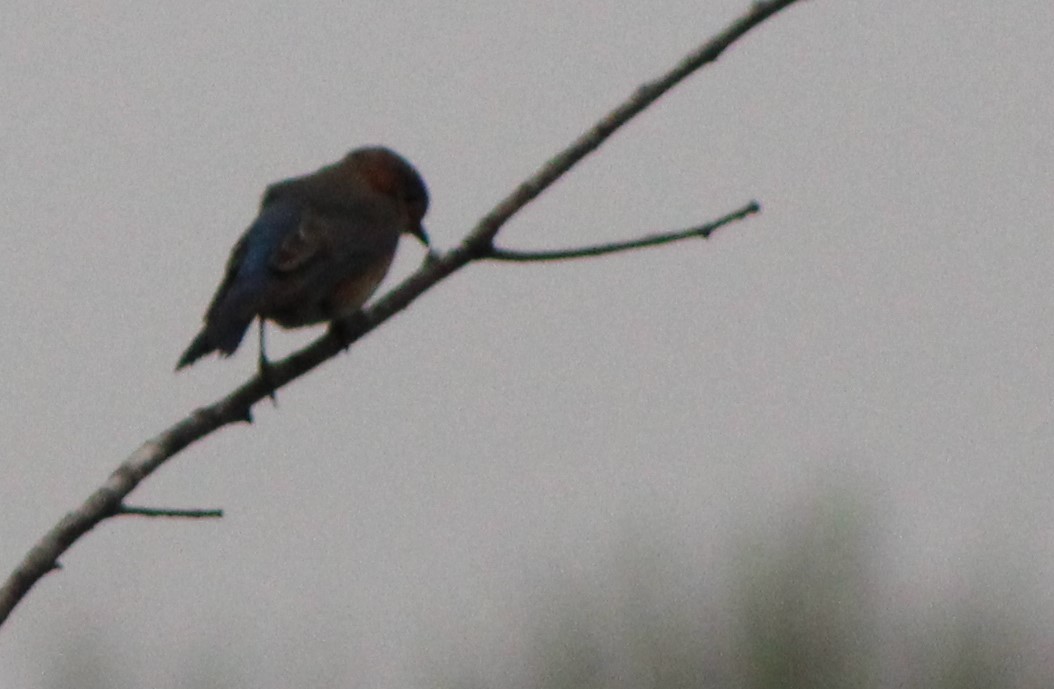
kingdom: Animalia
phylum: Chordata
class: Aves
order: Passeriformes
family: Turdidae
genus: Sialia
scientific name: Sialia sialis
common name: Eastern bluebird
